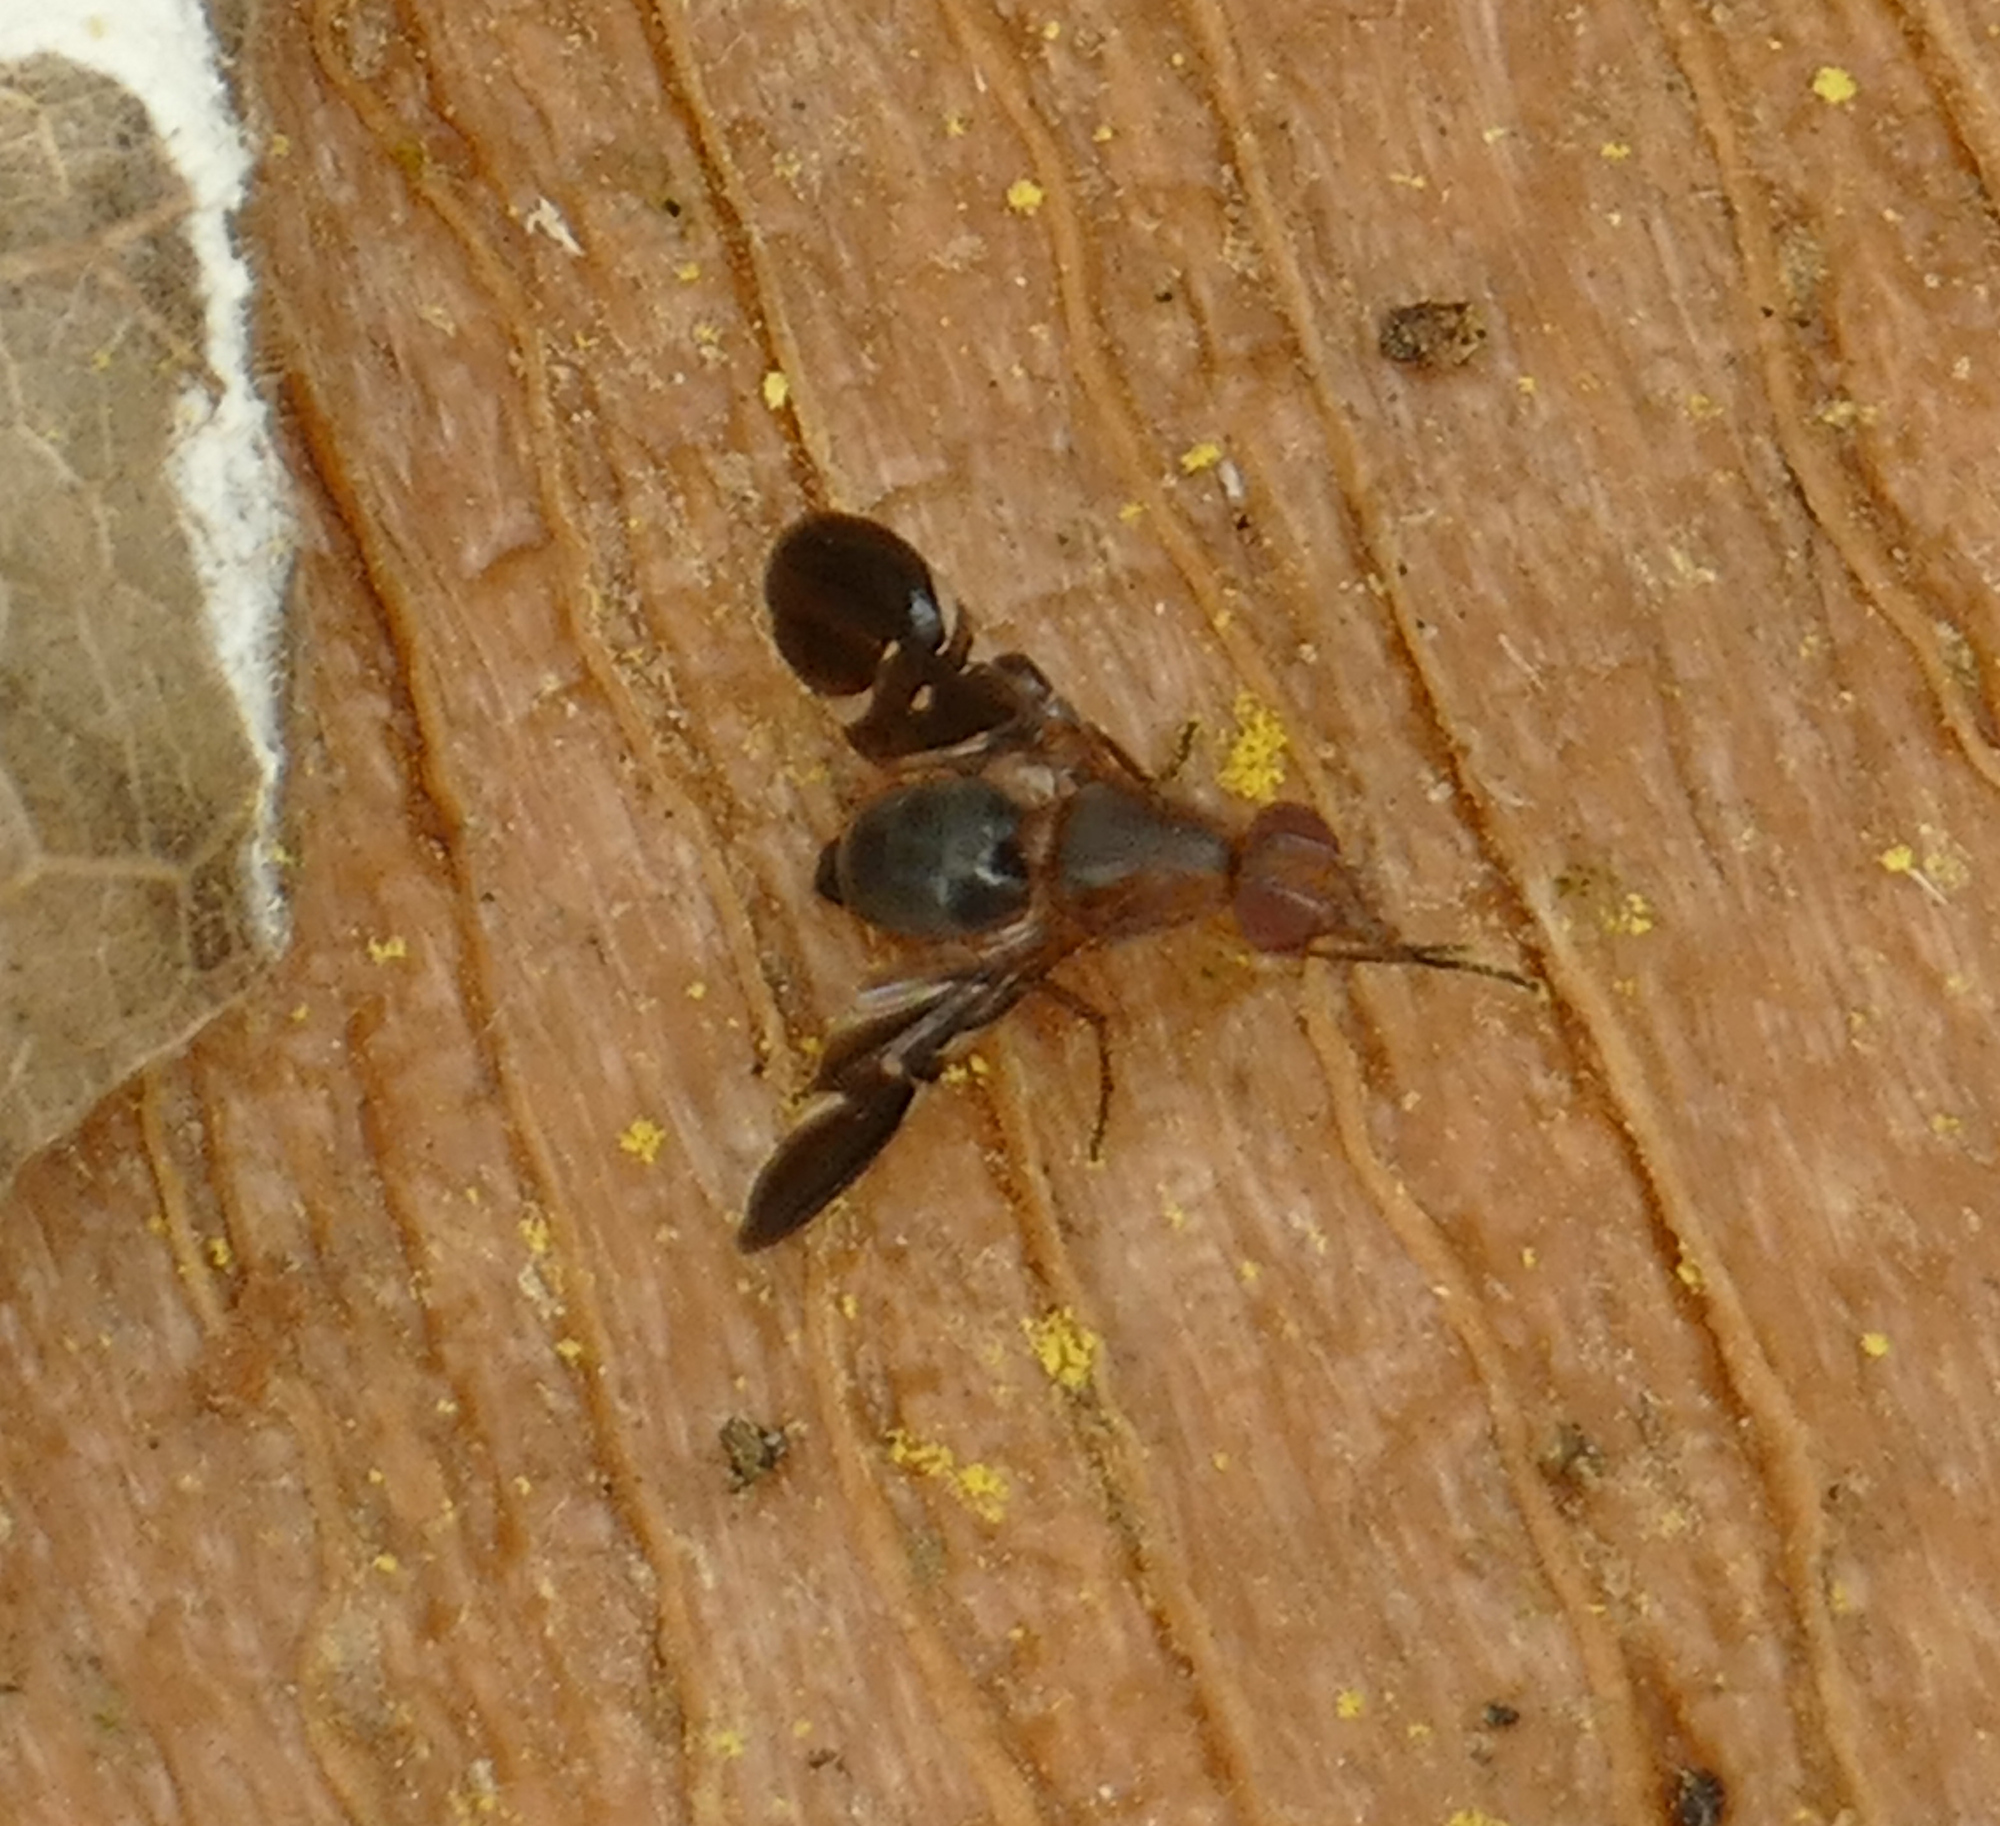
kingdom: Animalia
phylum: Arthropoda
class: Insecta
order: Diptera
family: Ulidiidae
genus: Delphinia
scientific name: Delphinia picta
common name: Common picture-winged fly
